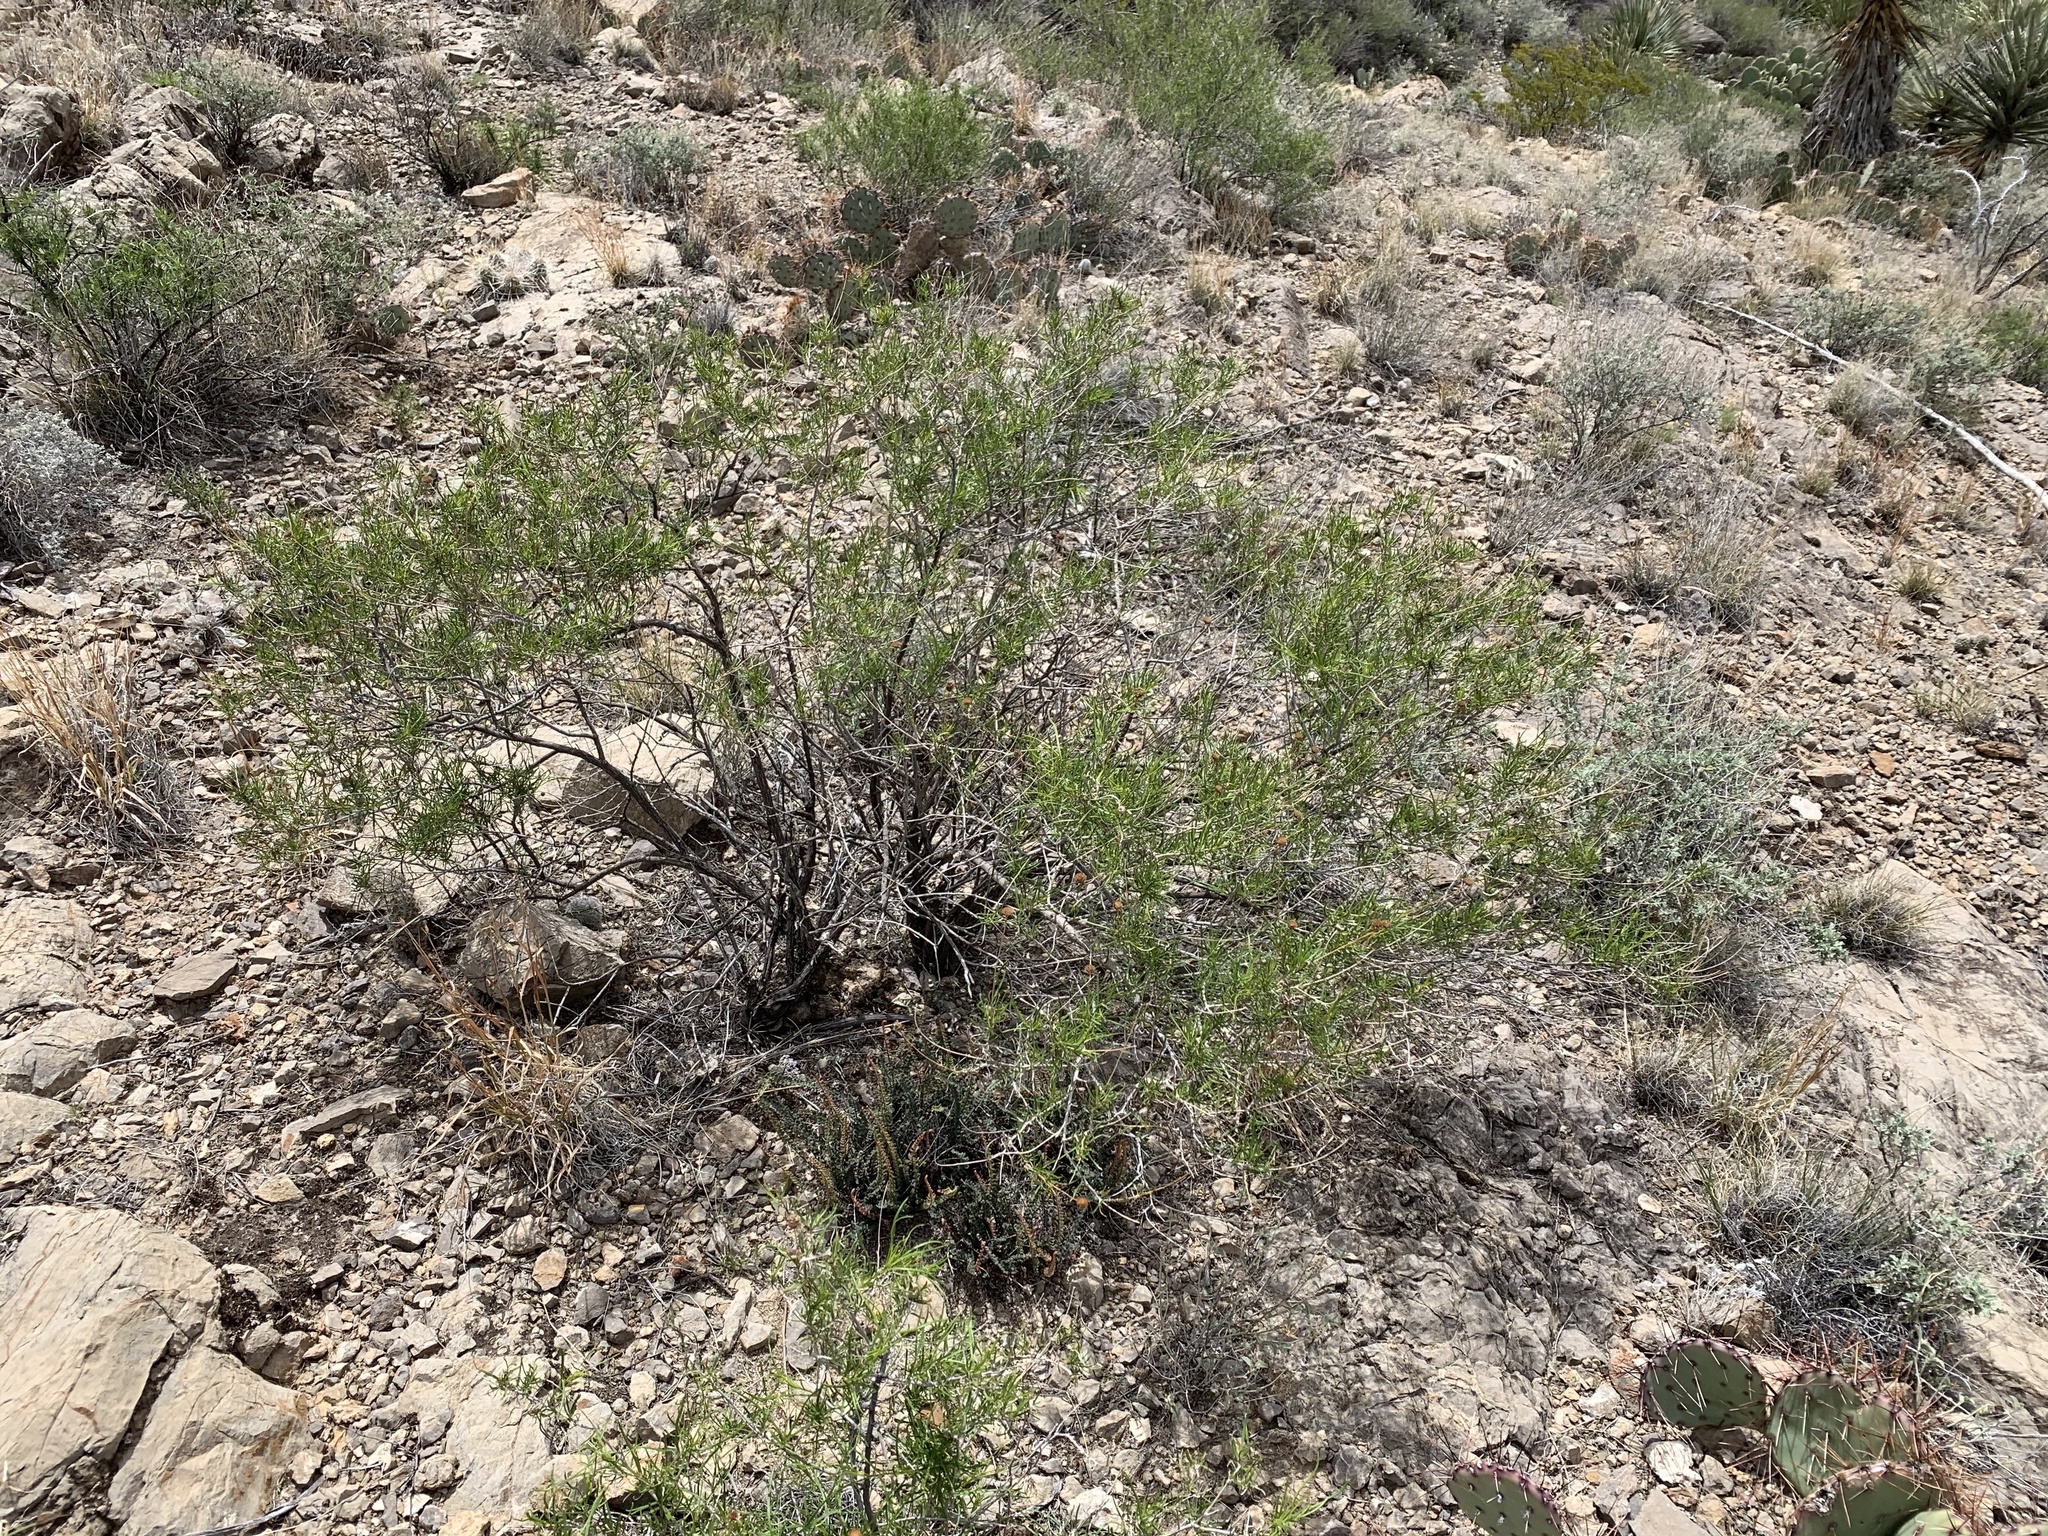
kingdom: Plantae
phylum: Tracheophyta
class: Magnoliopsida
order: Asterales
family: Asteraceae
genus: Sidneya
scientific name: Sidneya tenuifolia
